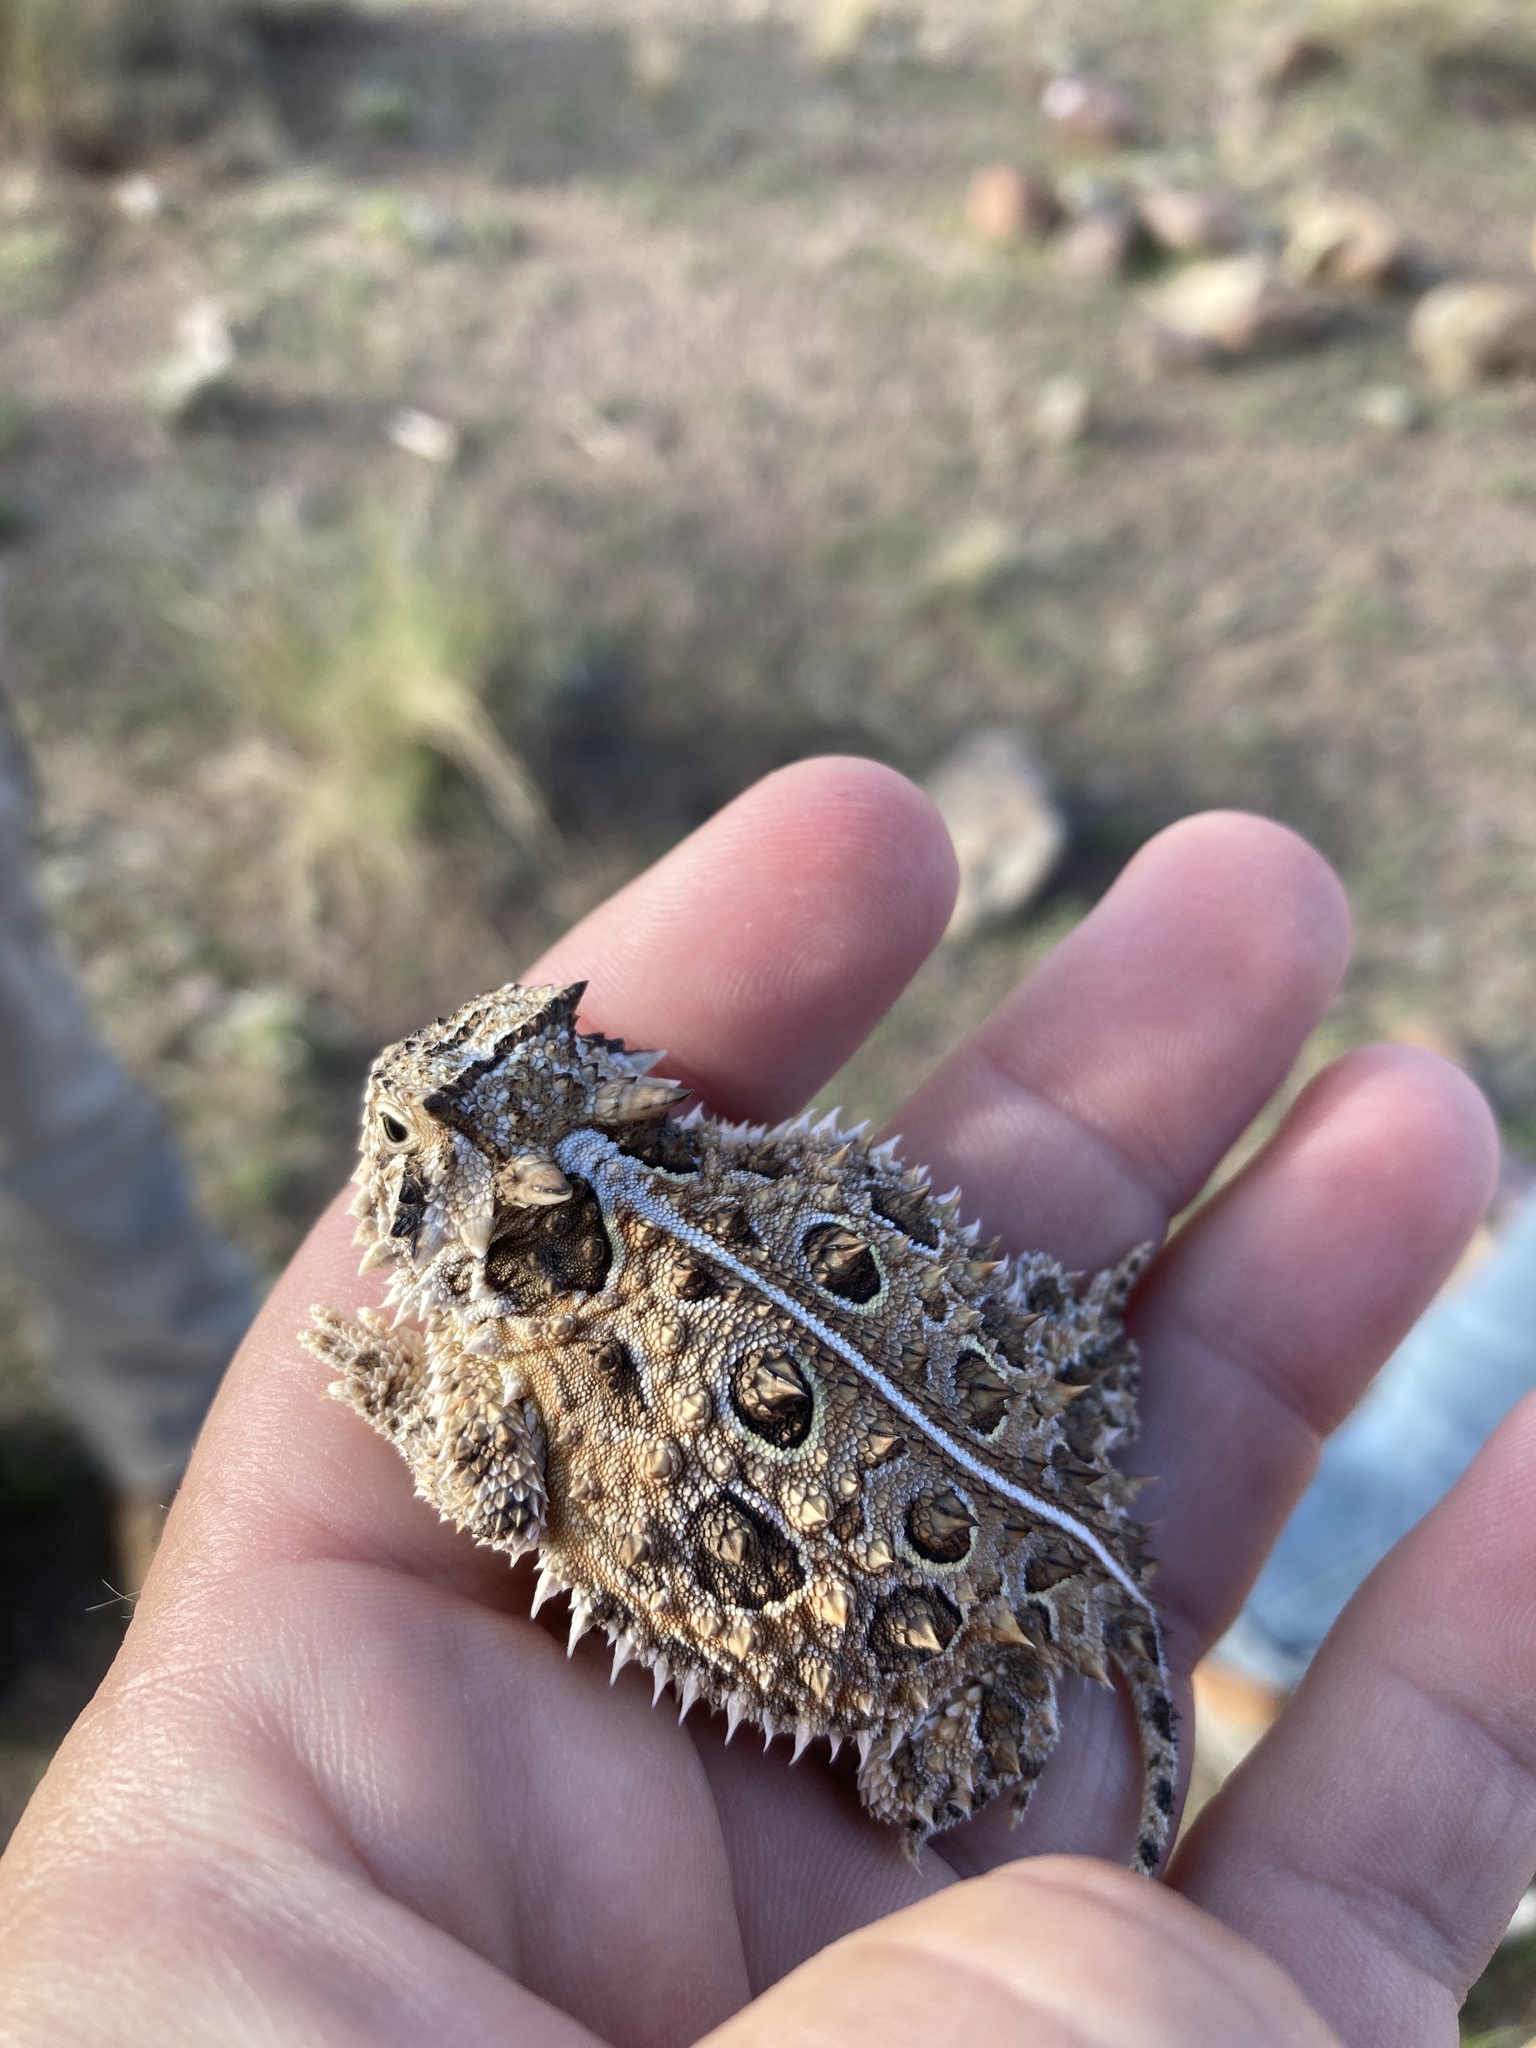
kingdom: Animalia
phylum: Chordata
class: Squamata
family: Phrynosomatidae
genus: Phrynosoma
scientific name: Phrynosoma cornutum
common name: Texas horned lizard
